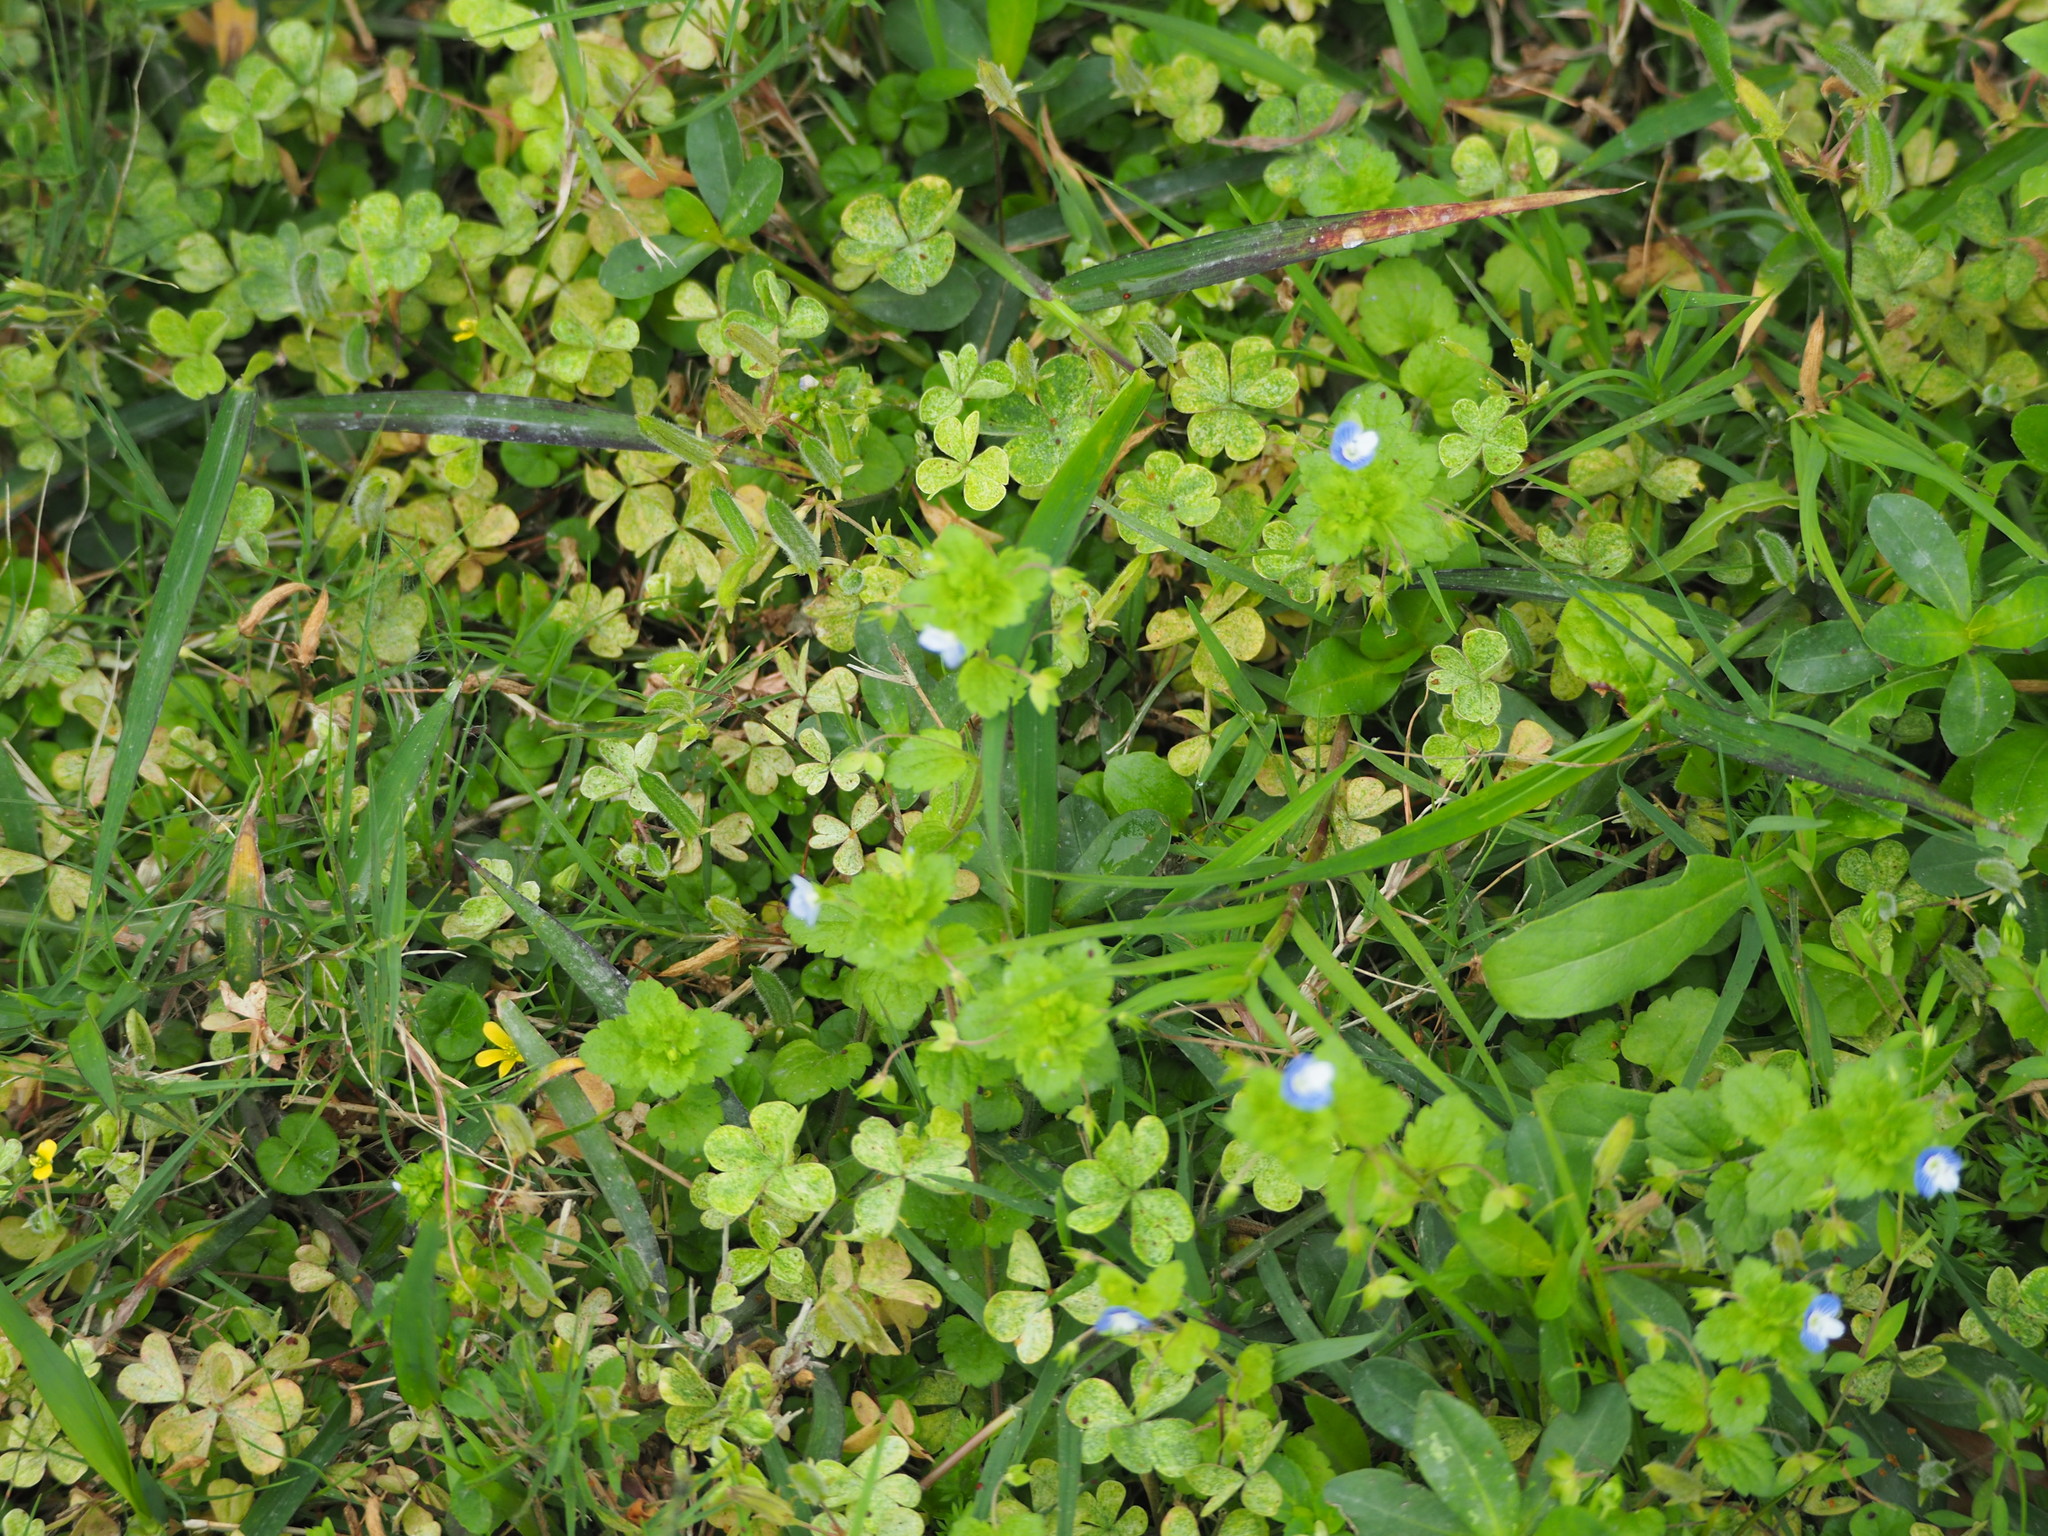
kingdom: Plantae
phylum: Tracheophyta
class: Magnoliopsida
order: Lamiales
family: Plantaginaceae
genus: Veronica
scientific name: Veronica persica
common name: Common field-speedwell
